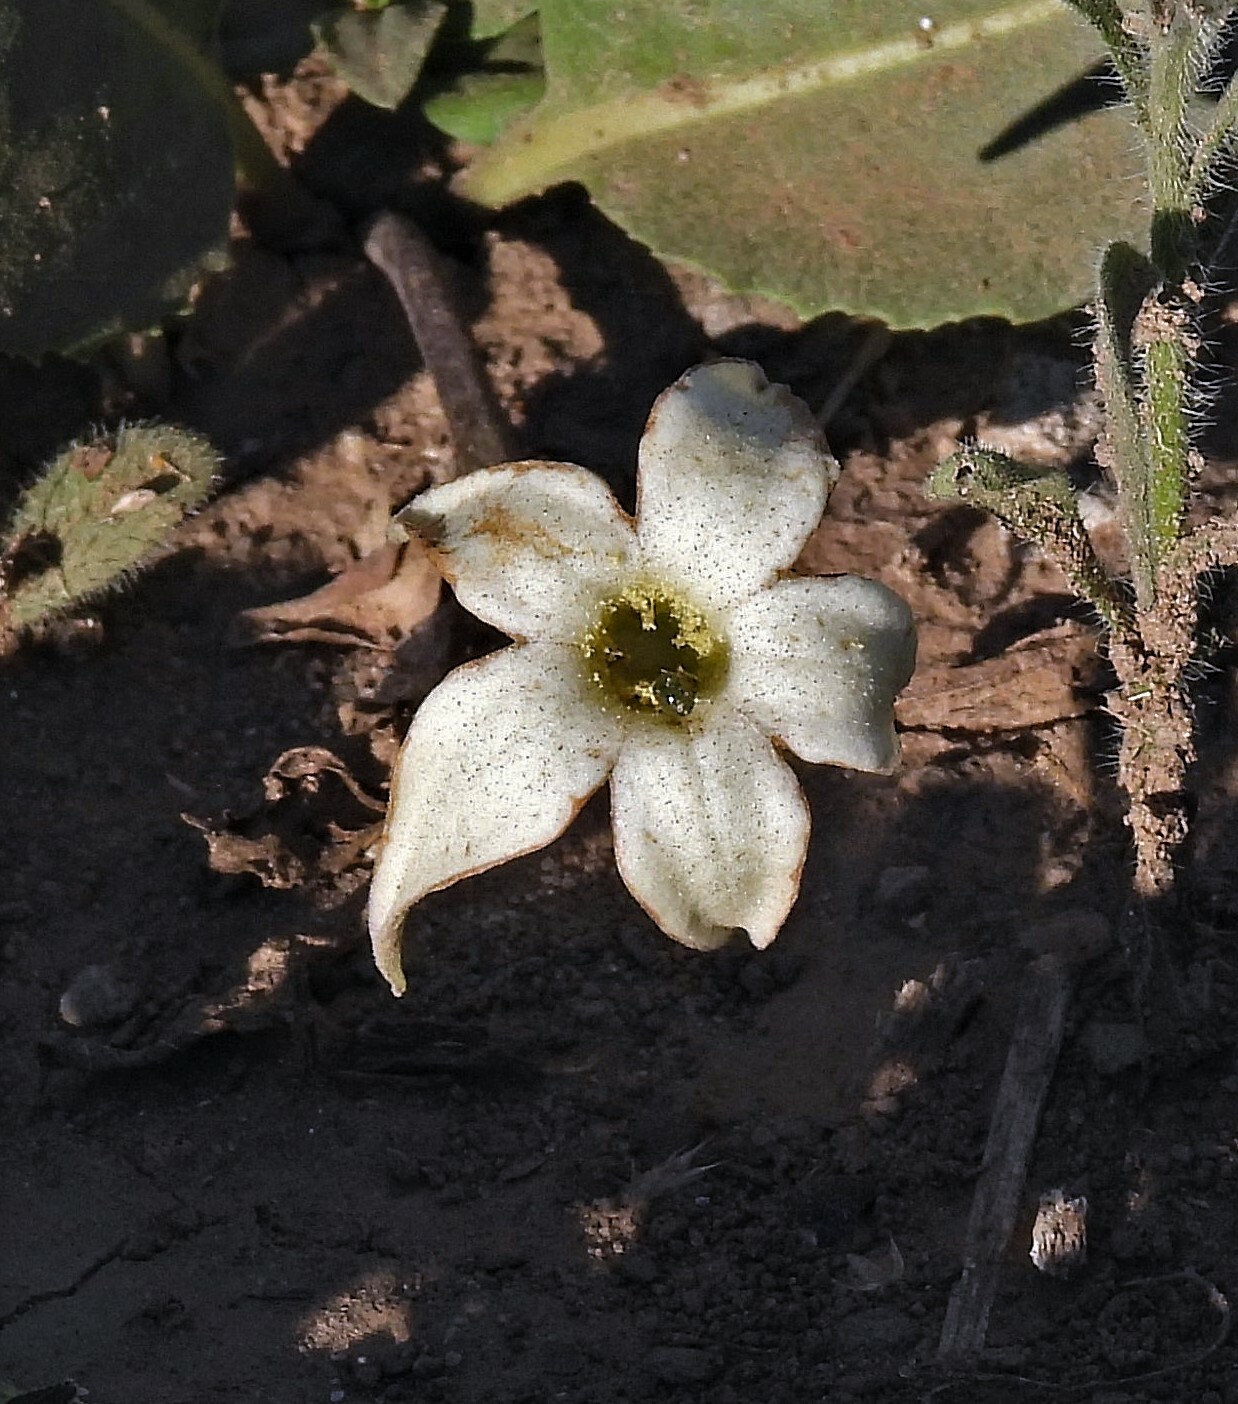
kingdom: Plantae
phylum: Tracheophyta
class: Magnoliopsida
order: Solanales
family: Solanaceae
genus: Jaborosa
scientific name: Jaborosa integrifolia
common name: Springblossom
